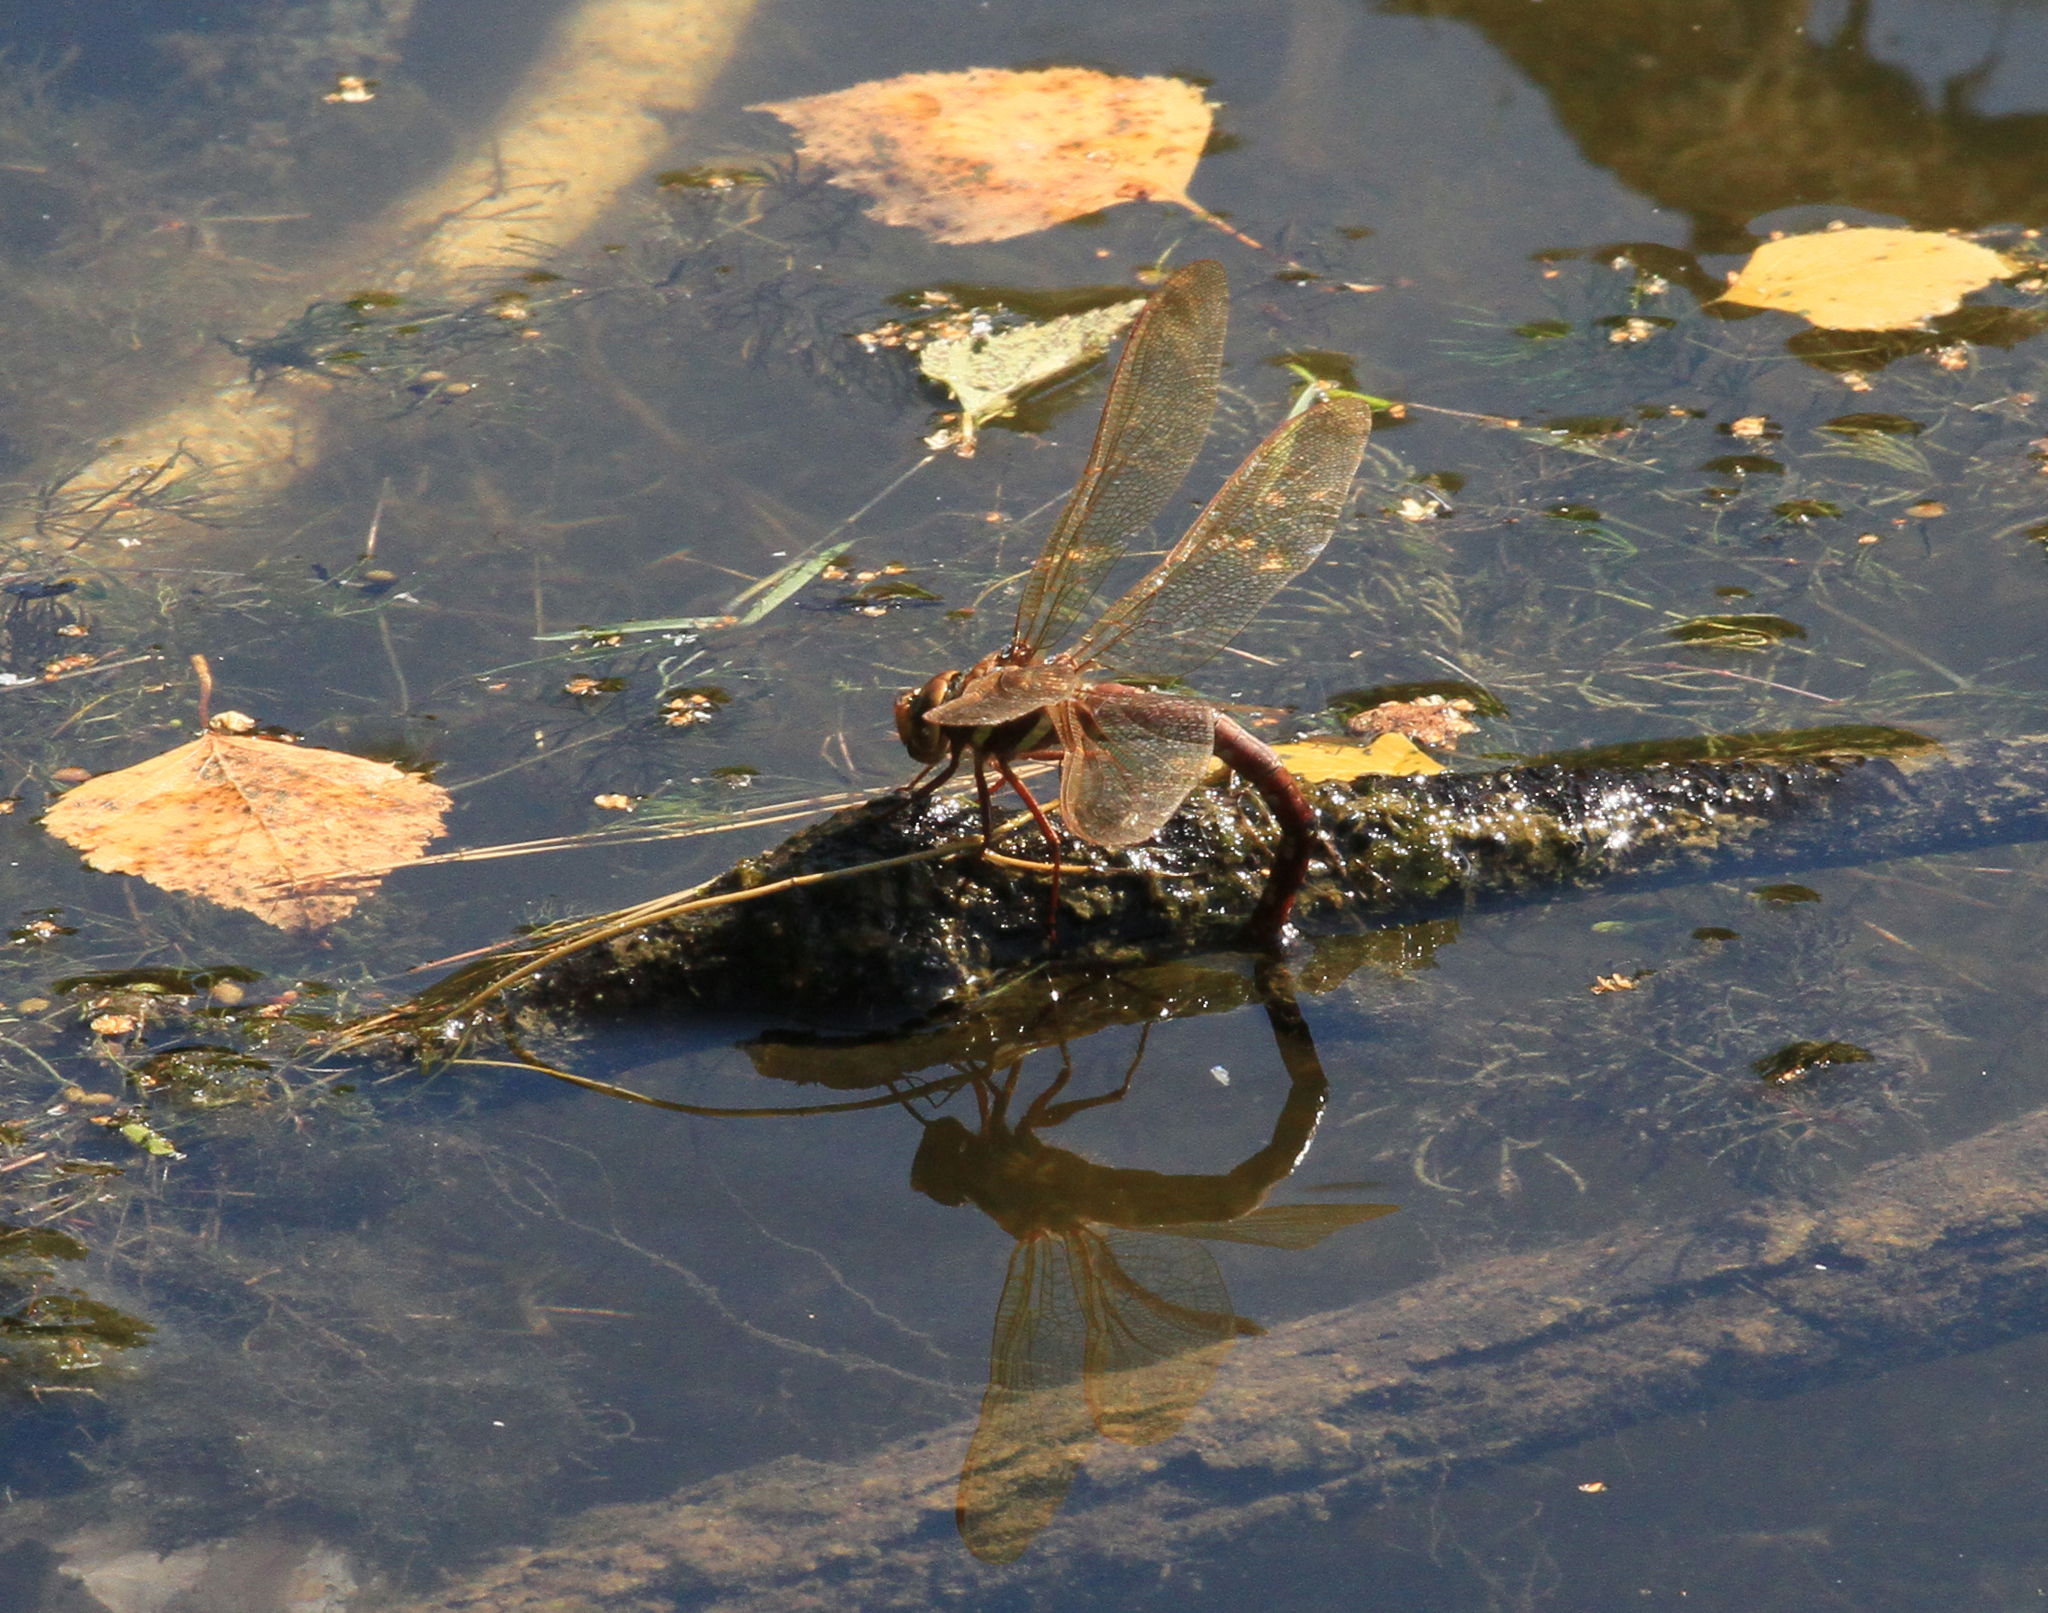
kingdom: Animalia
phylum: Arthropoda
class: Insecta
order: Odonata
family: Aeshnidae
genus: Aeshna
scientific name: Aeshna grandis
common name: Brown hawker
